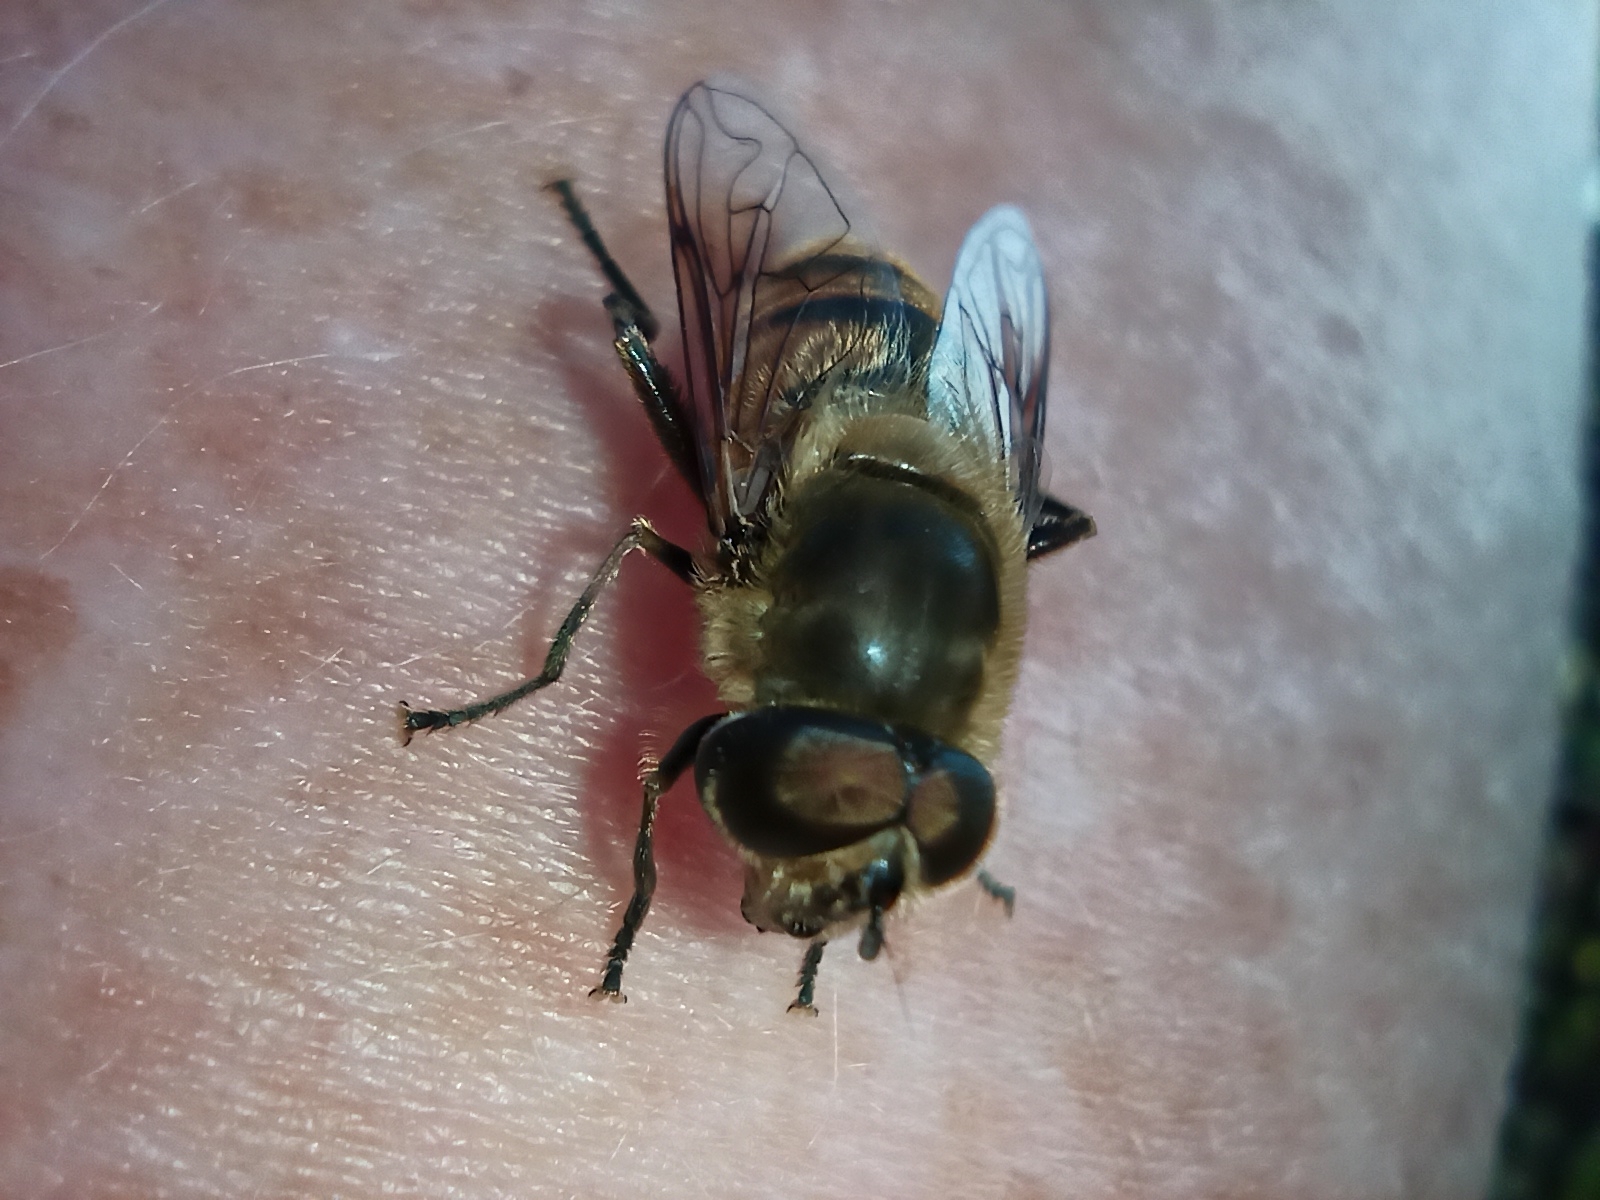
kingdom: Animalia
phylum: Arthropoda
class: Insecta
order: Diptera
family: Syrphidae
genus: Eristalis
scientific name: Eristalis tenax
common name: Drone fly
